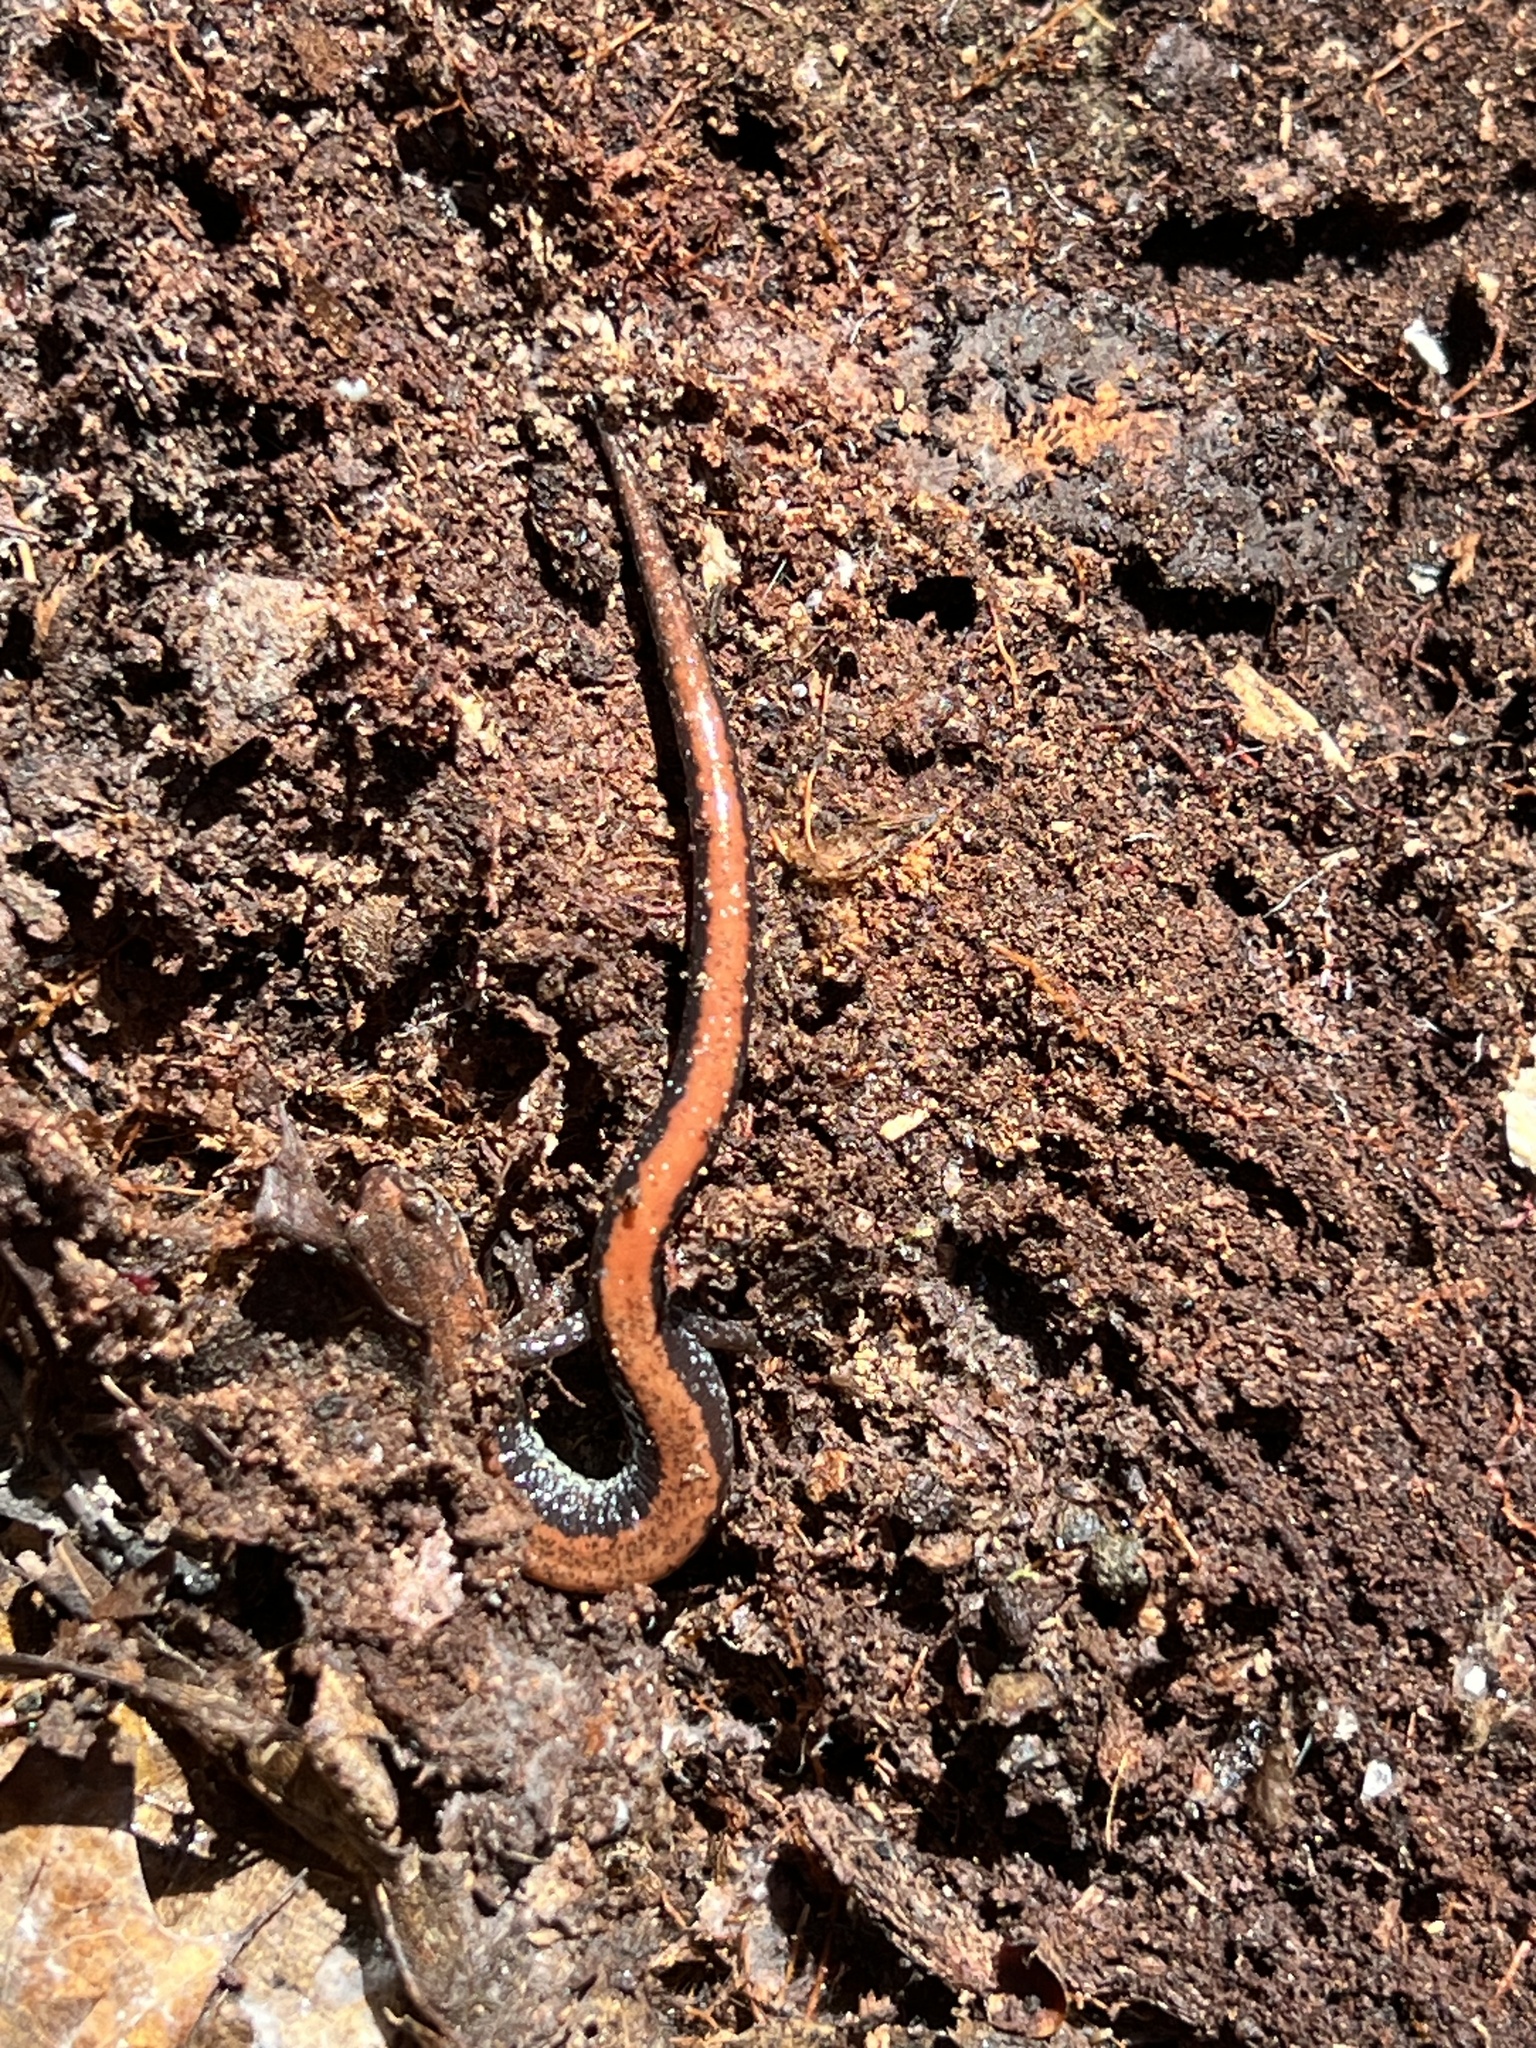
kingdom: Animalia
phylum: Chordata
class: Amphibia
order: Caudata
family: Plethodontidae
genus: Plethodon
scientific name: Plethodon cinereus
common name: Redback salamander
